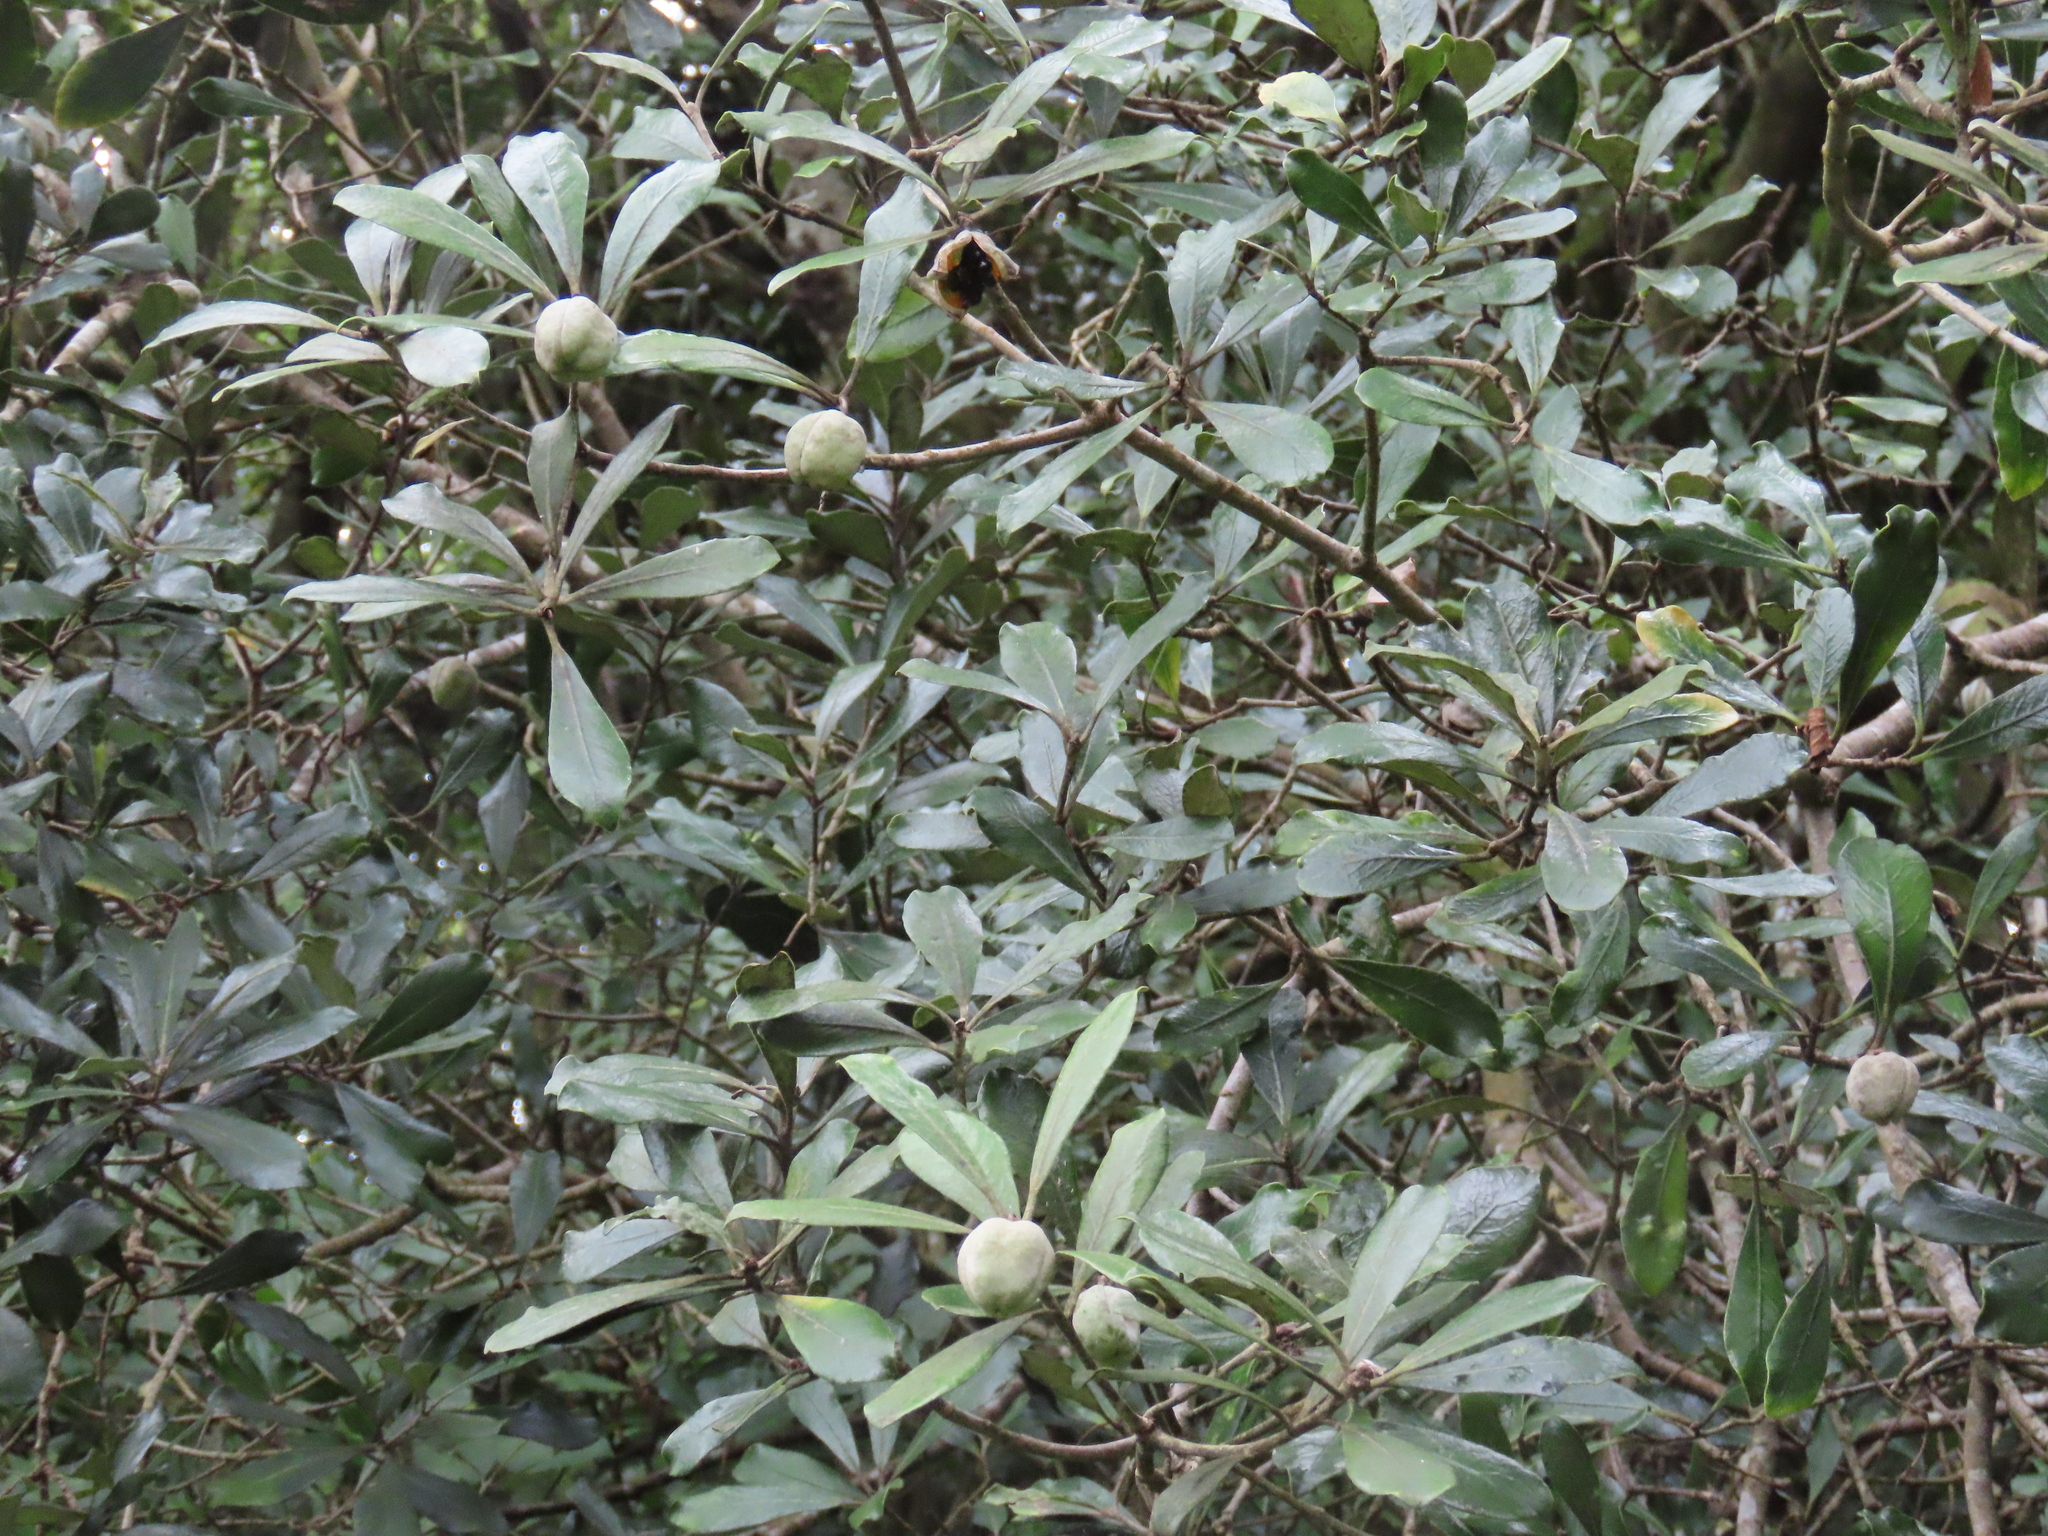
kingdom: Plantae
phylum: Tracheophyta
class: Magnoliopsida
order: Apiales
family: Pittosporaceae
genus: Pittosporum
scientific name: Pittosporum ralphii
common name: Ralph's desertwillow
